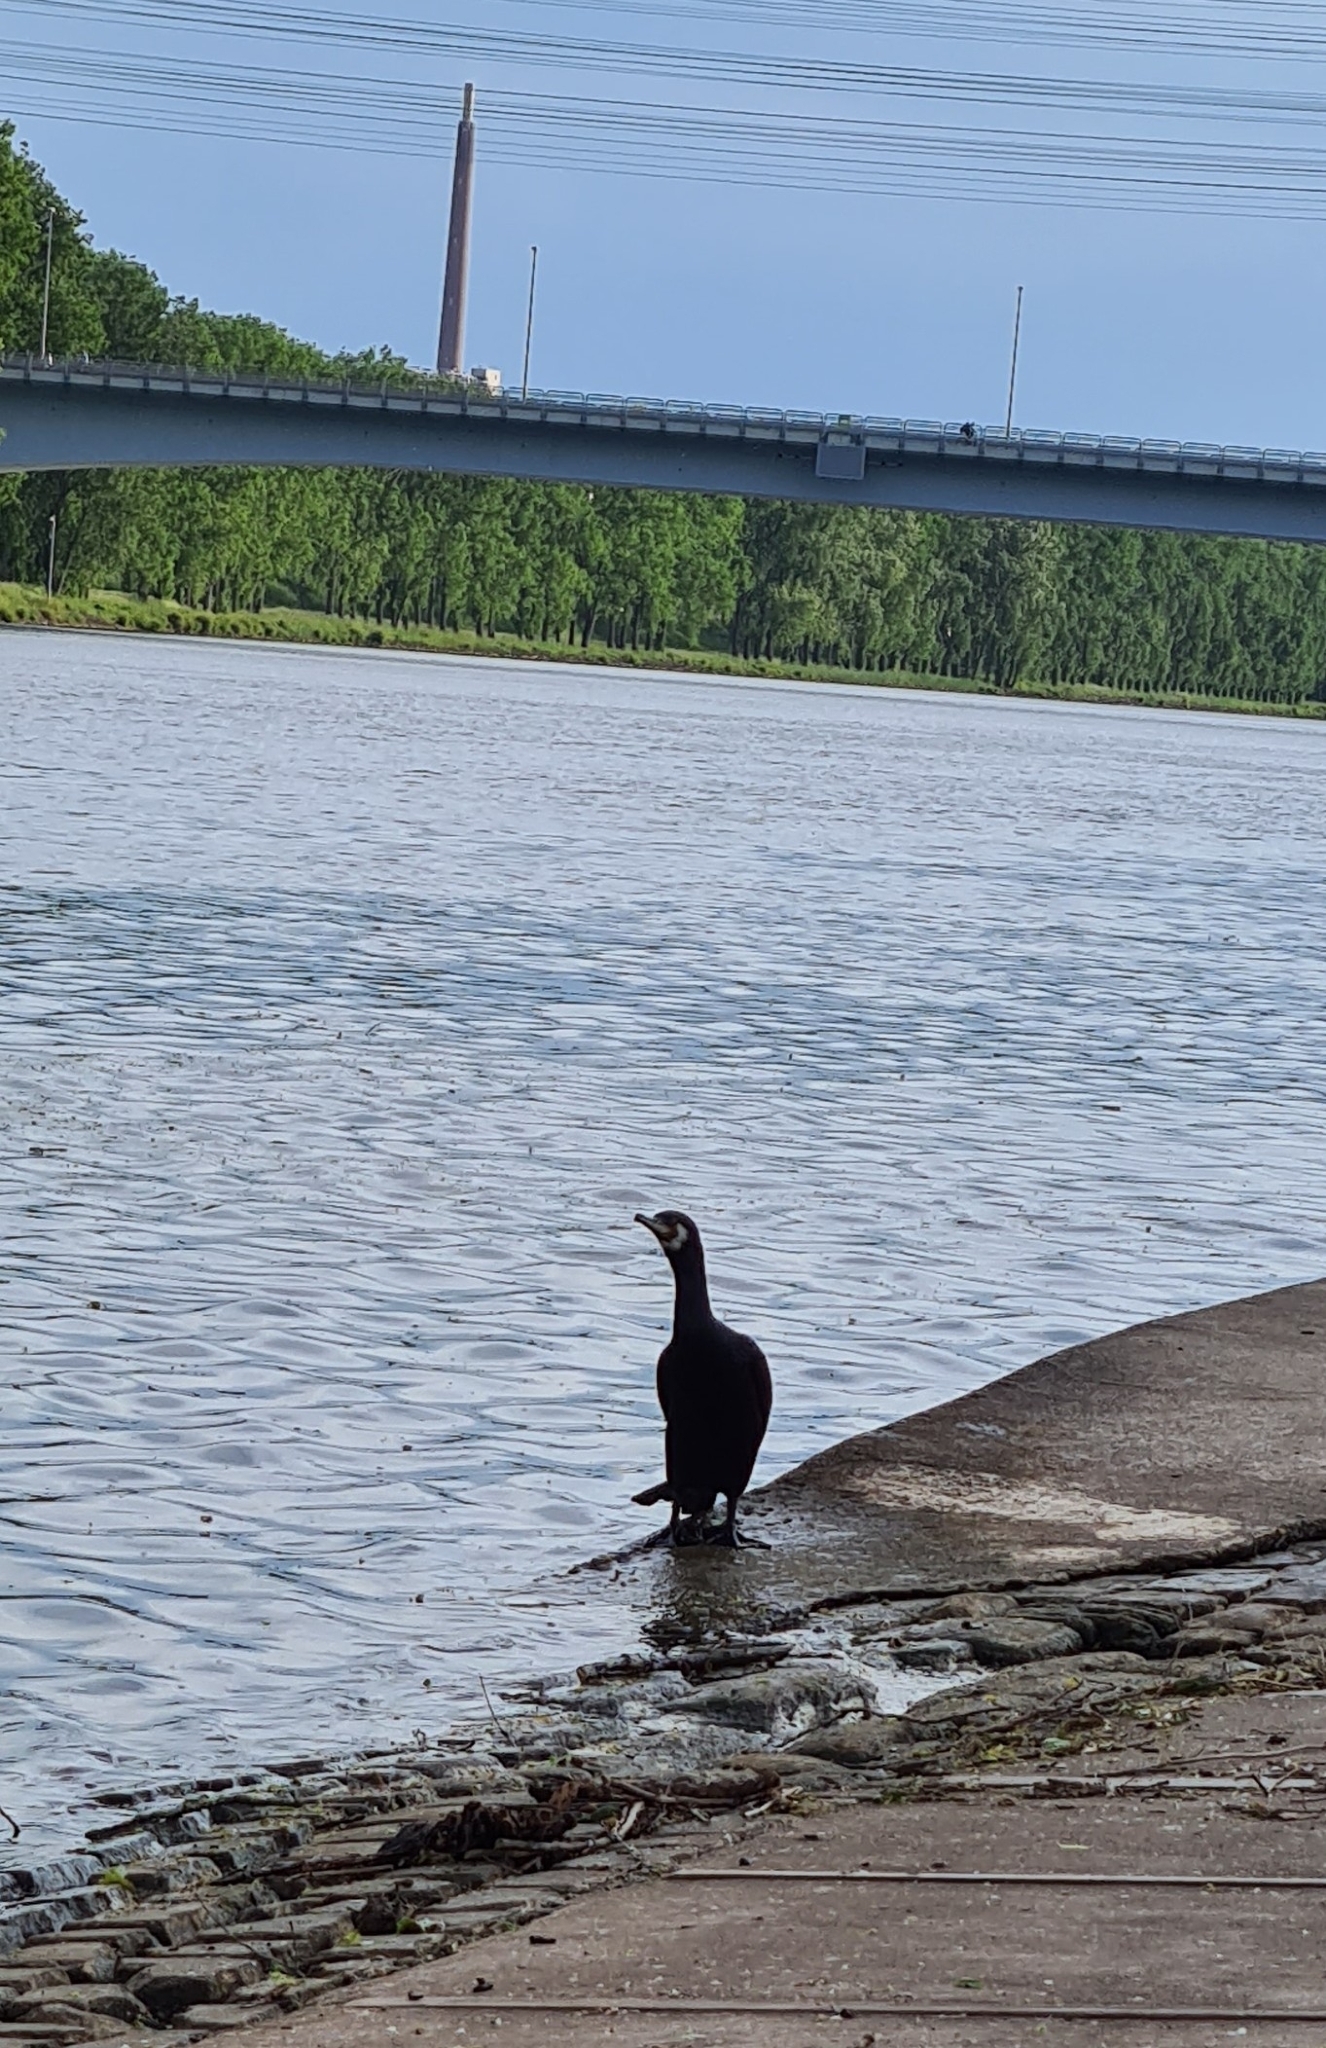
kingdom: Animalia
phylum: Chordata
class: Aves
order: Suliformes
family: Phalacrocoracidae
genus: Phalacrocorax
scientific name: Phalacrocorax carbo
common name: Great cormorant
